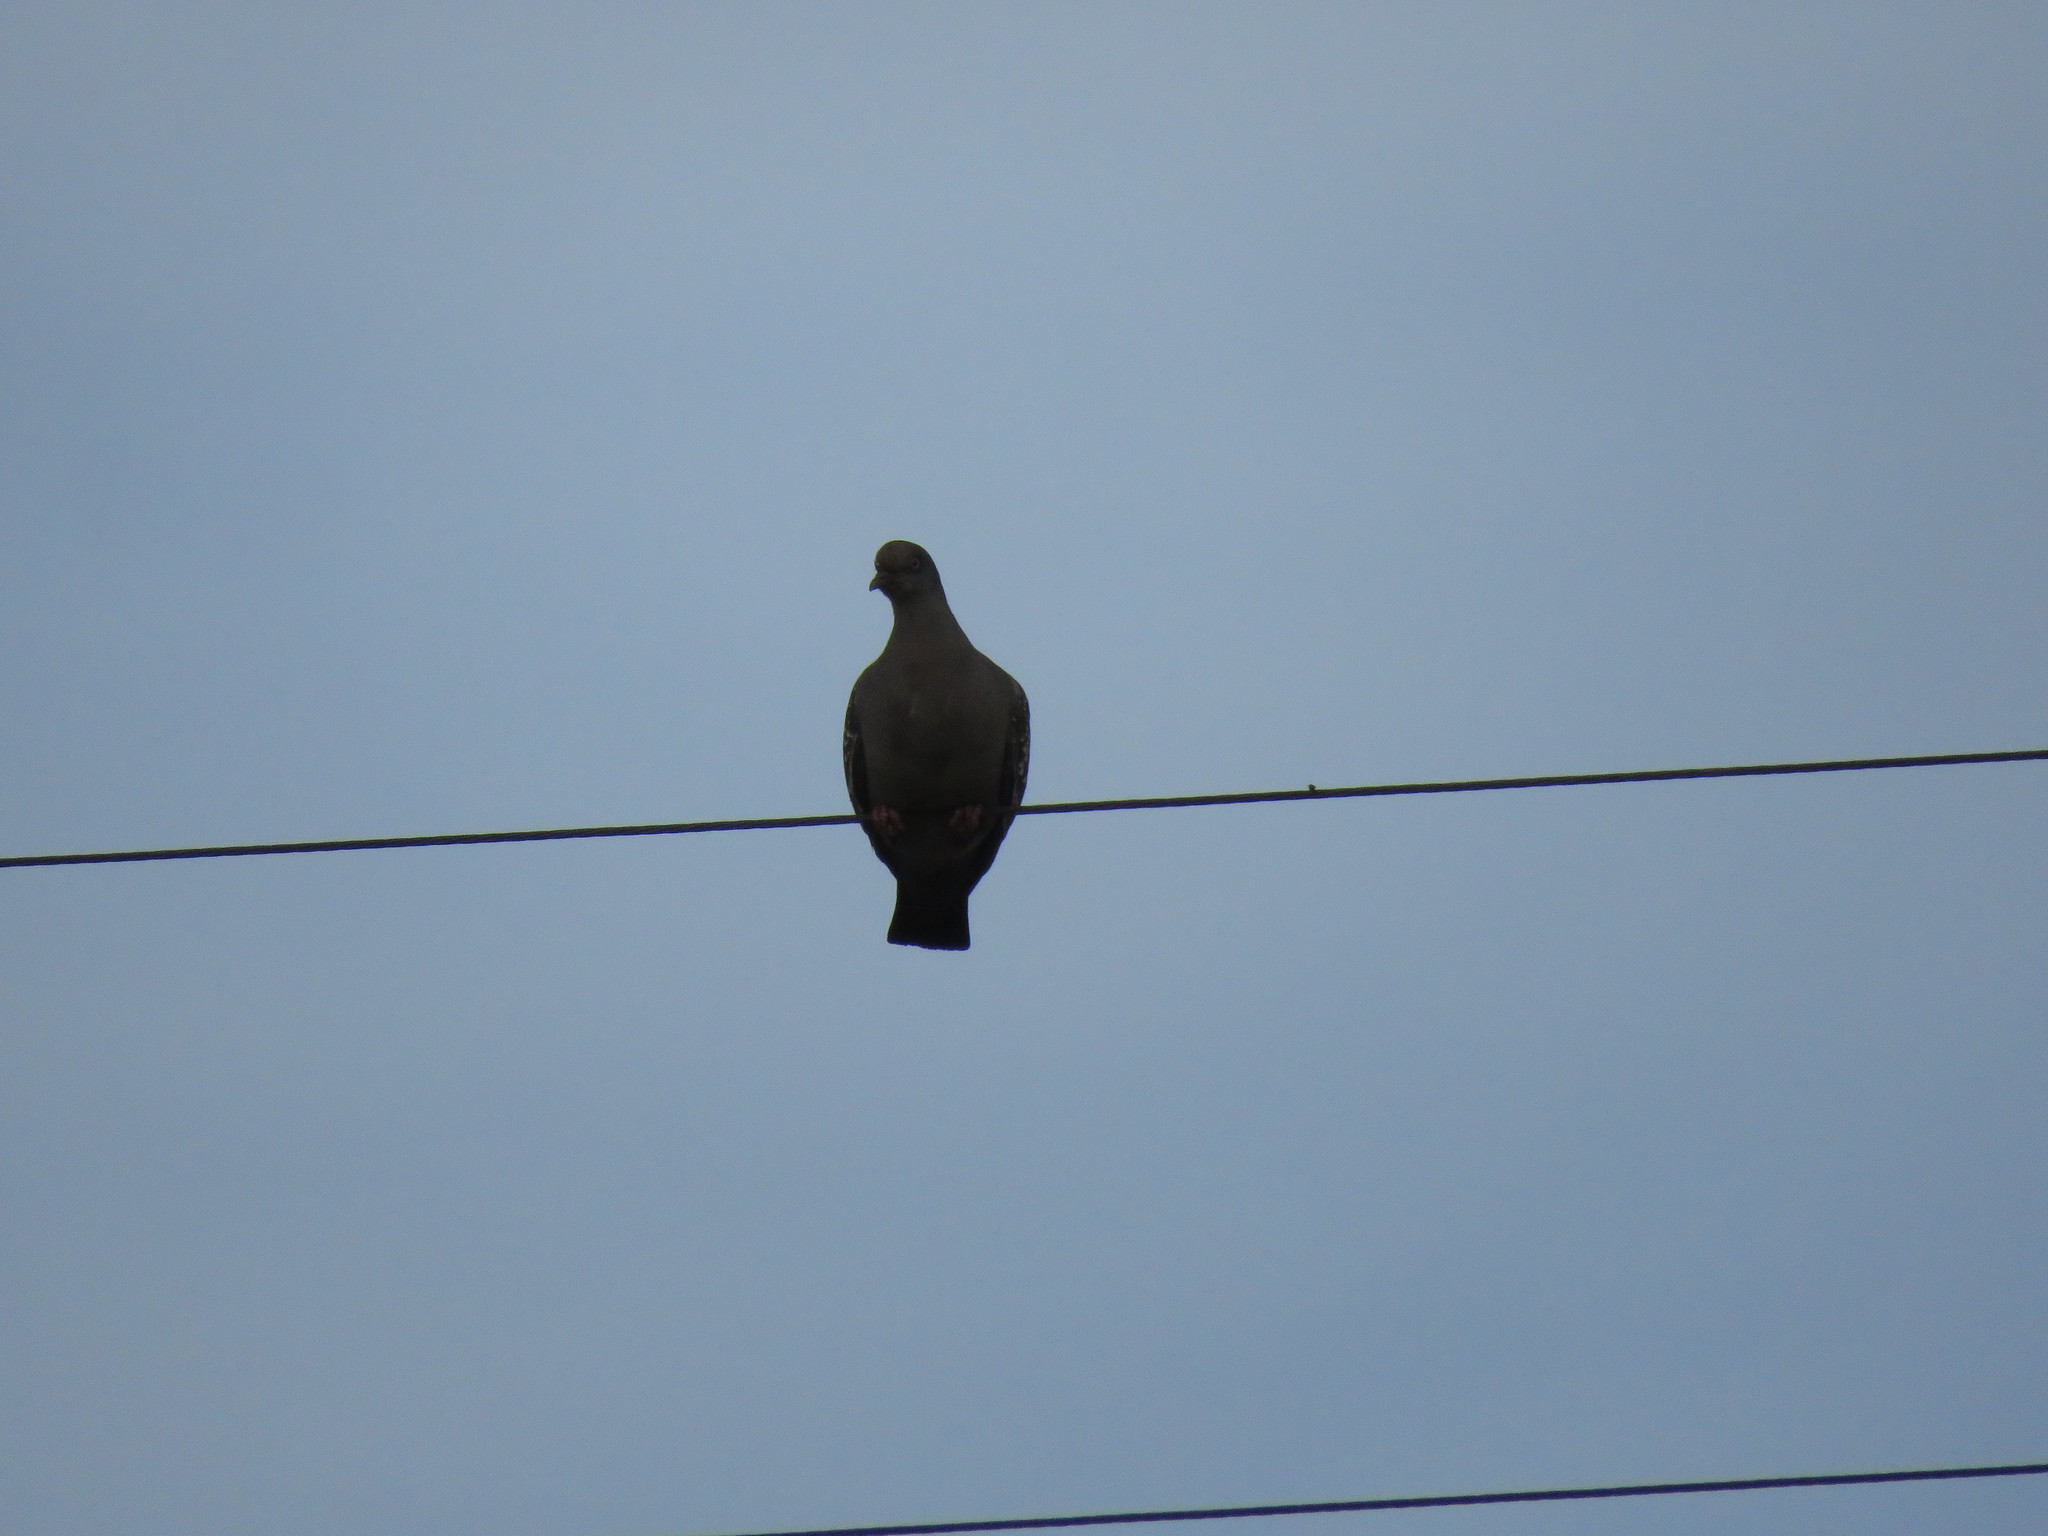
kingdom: Animalia
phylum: Chordata
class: Aves
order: Columbiformes
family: Columbidae
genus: Patagioenas
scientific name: Patagioenas maculosa
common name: Spot-winged pigeon
